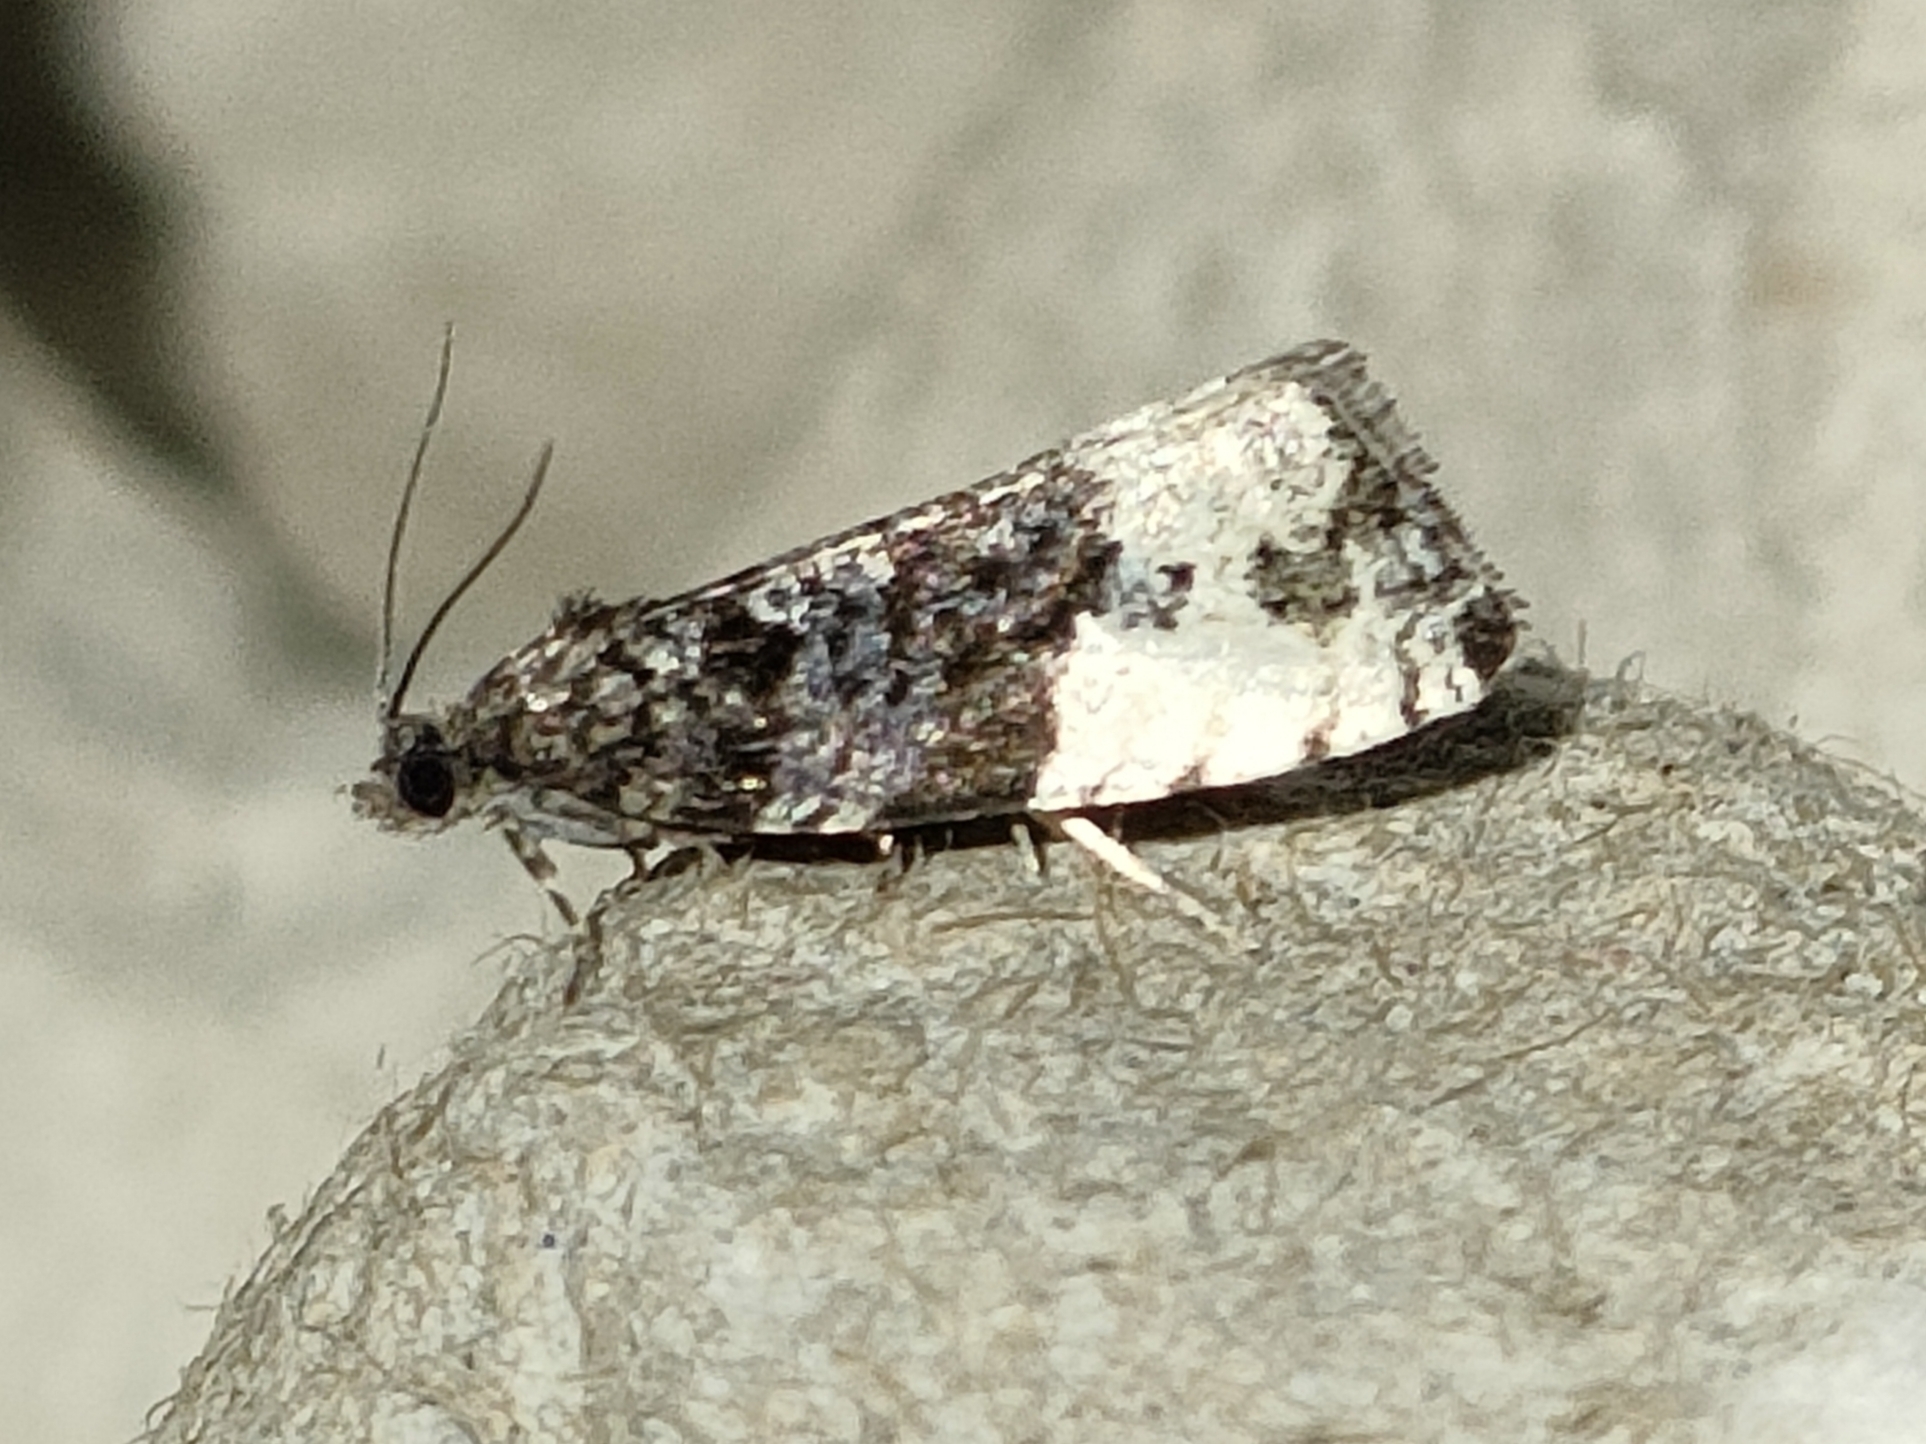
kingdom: Animalia
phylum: Arthropoda
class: Insecta
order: Lepidoptera
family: Tortricidae
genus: Hedya
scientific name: Hedya pruniana
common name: Plum tortrix
